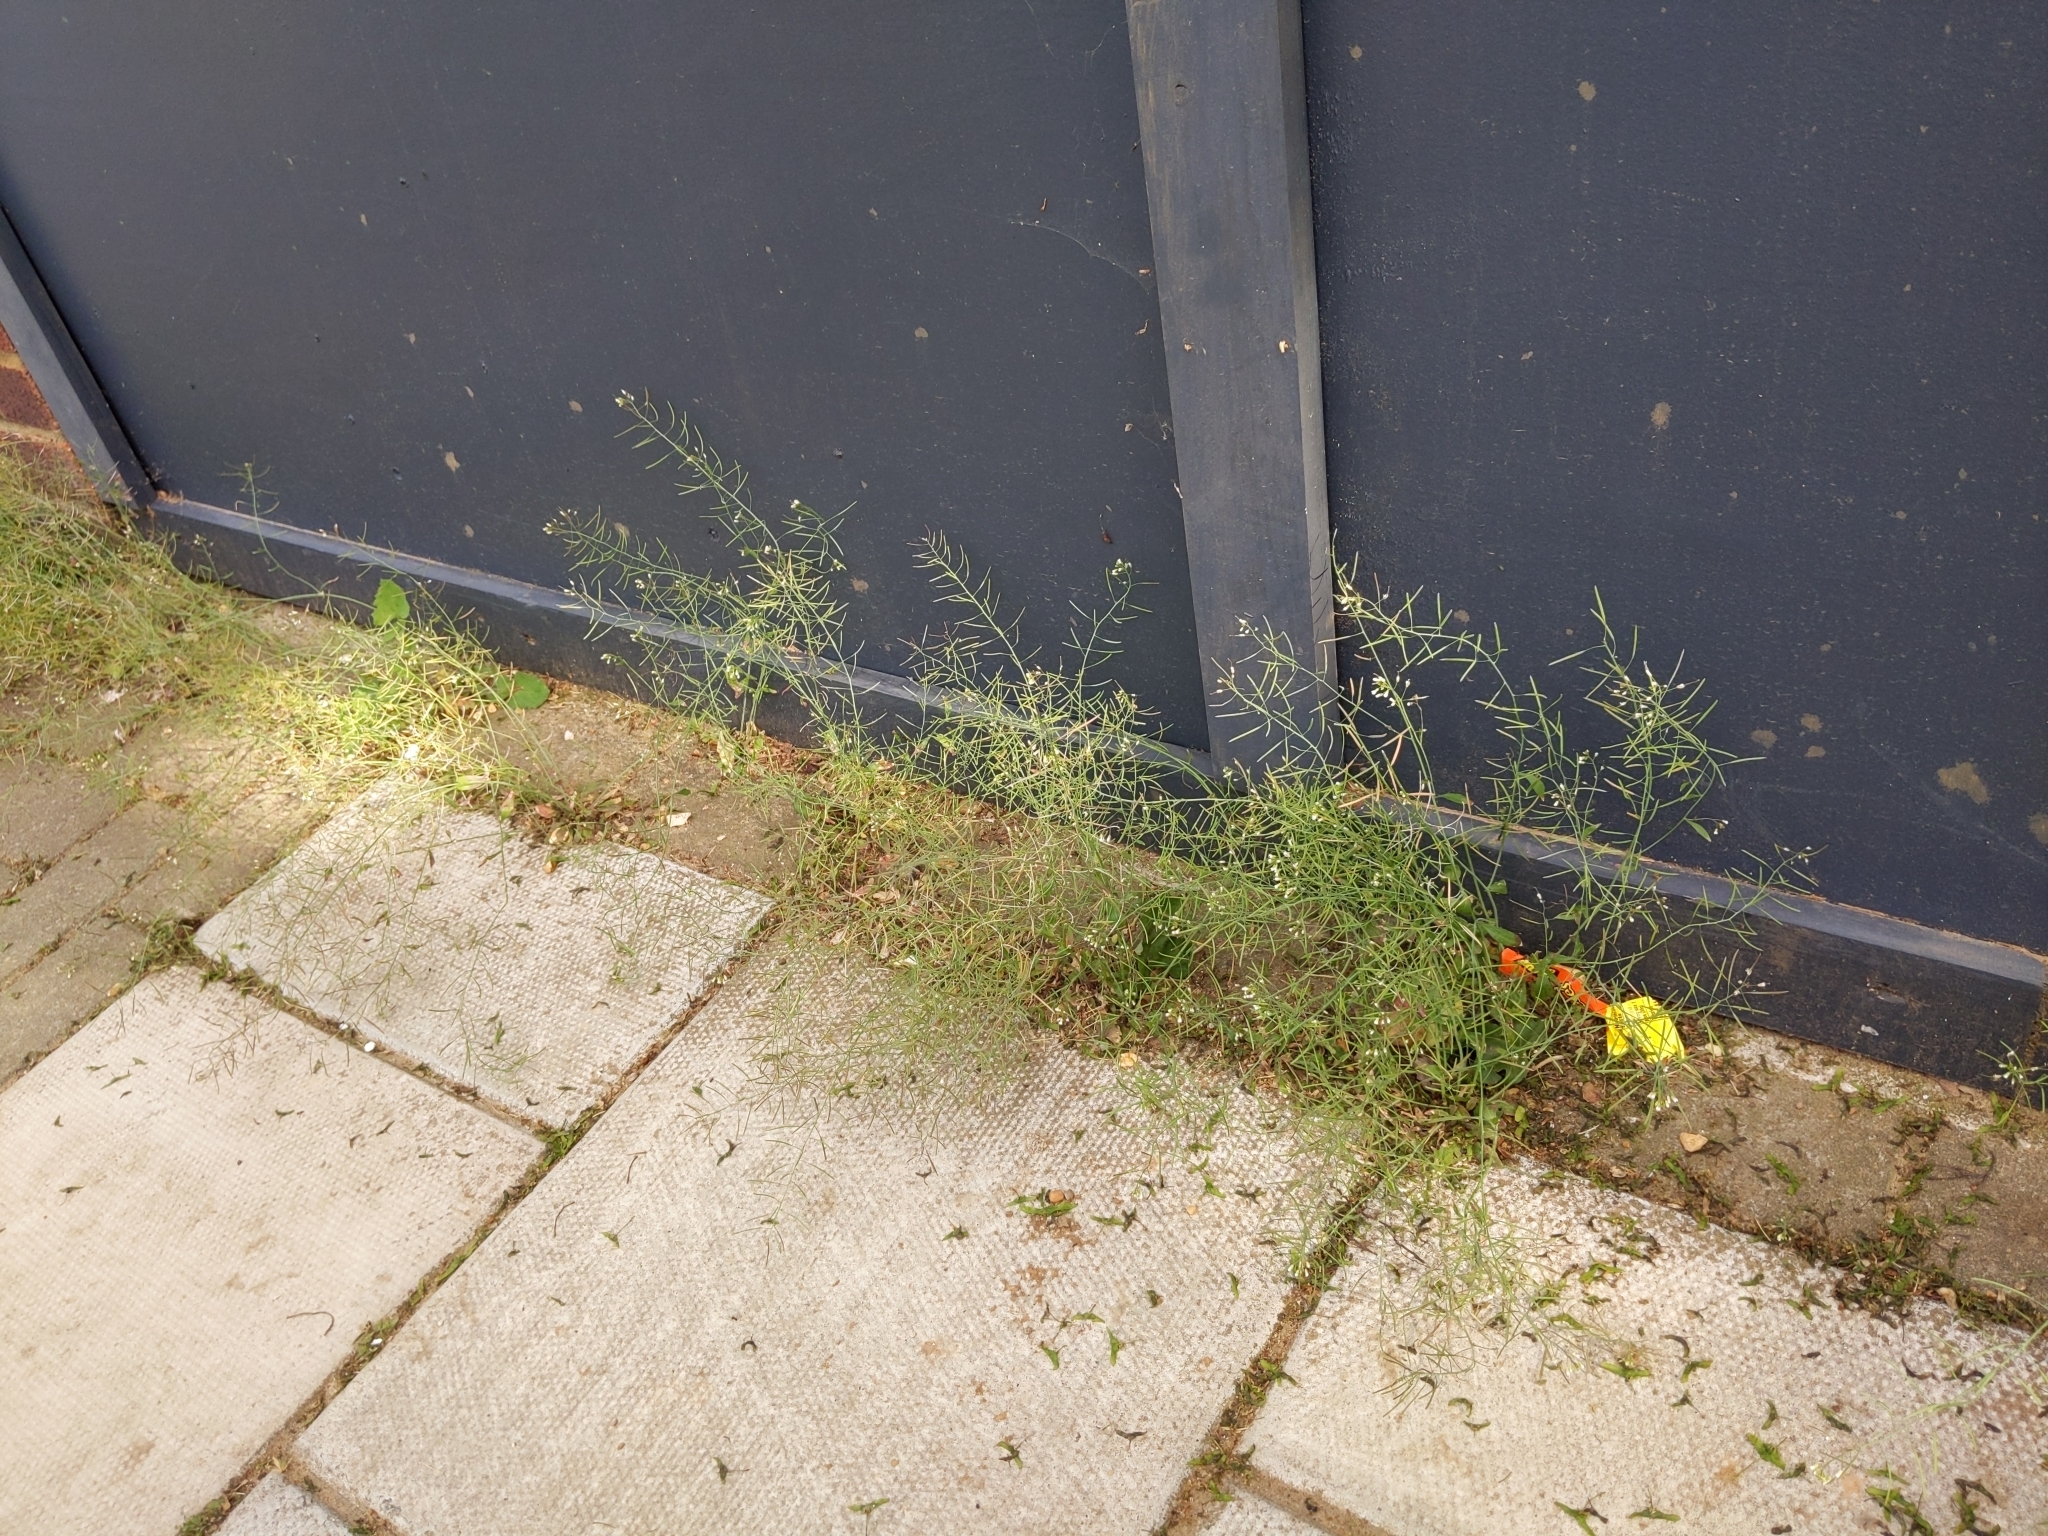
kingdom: Plantae
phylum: Tracheophyta
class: Magnoliopsida
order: Brassicales
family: Brassicaceae
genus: Arabidopsis
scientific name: Arabidopsis thaliana
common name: Thale cress
